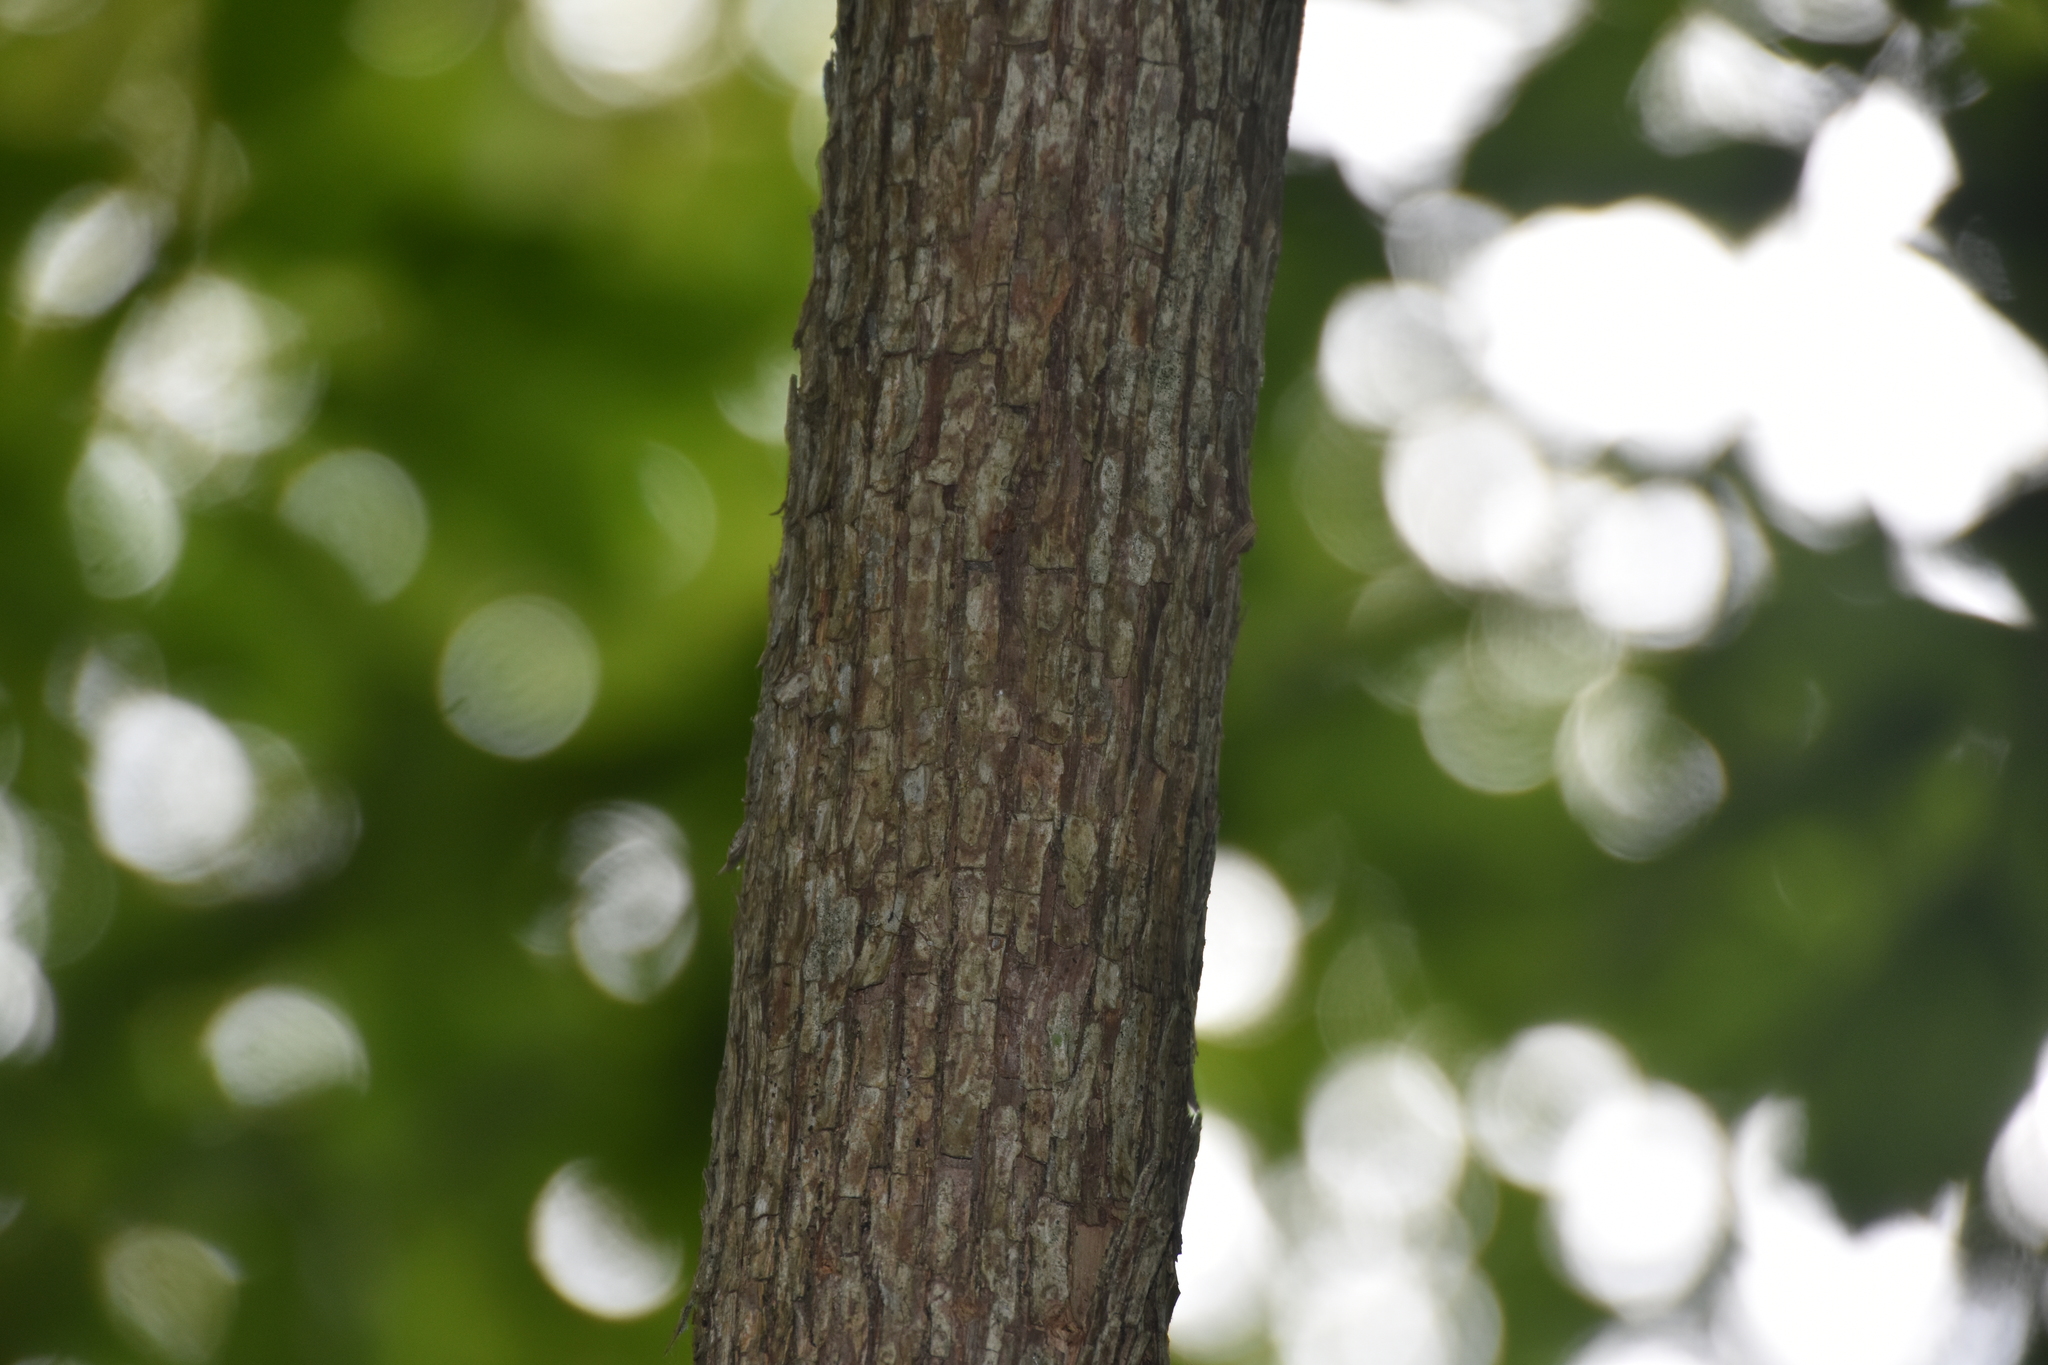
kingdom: Plantae
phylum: Tracheophyta
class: Magnoliopsida
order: Fagales
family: Betulaceae
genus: Ostrya
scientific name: Ostrya virginiana
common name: Ironwood
